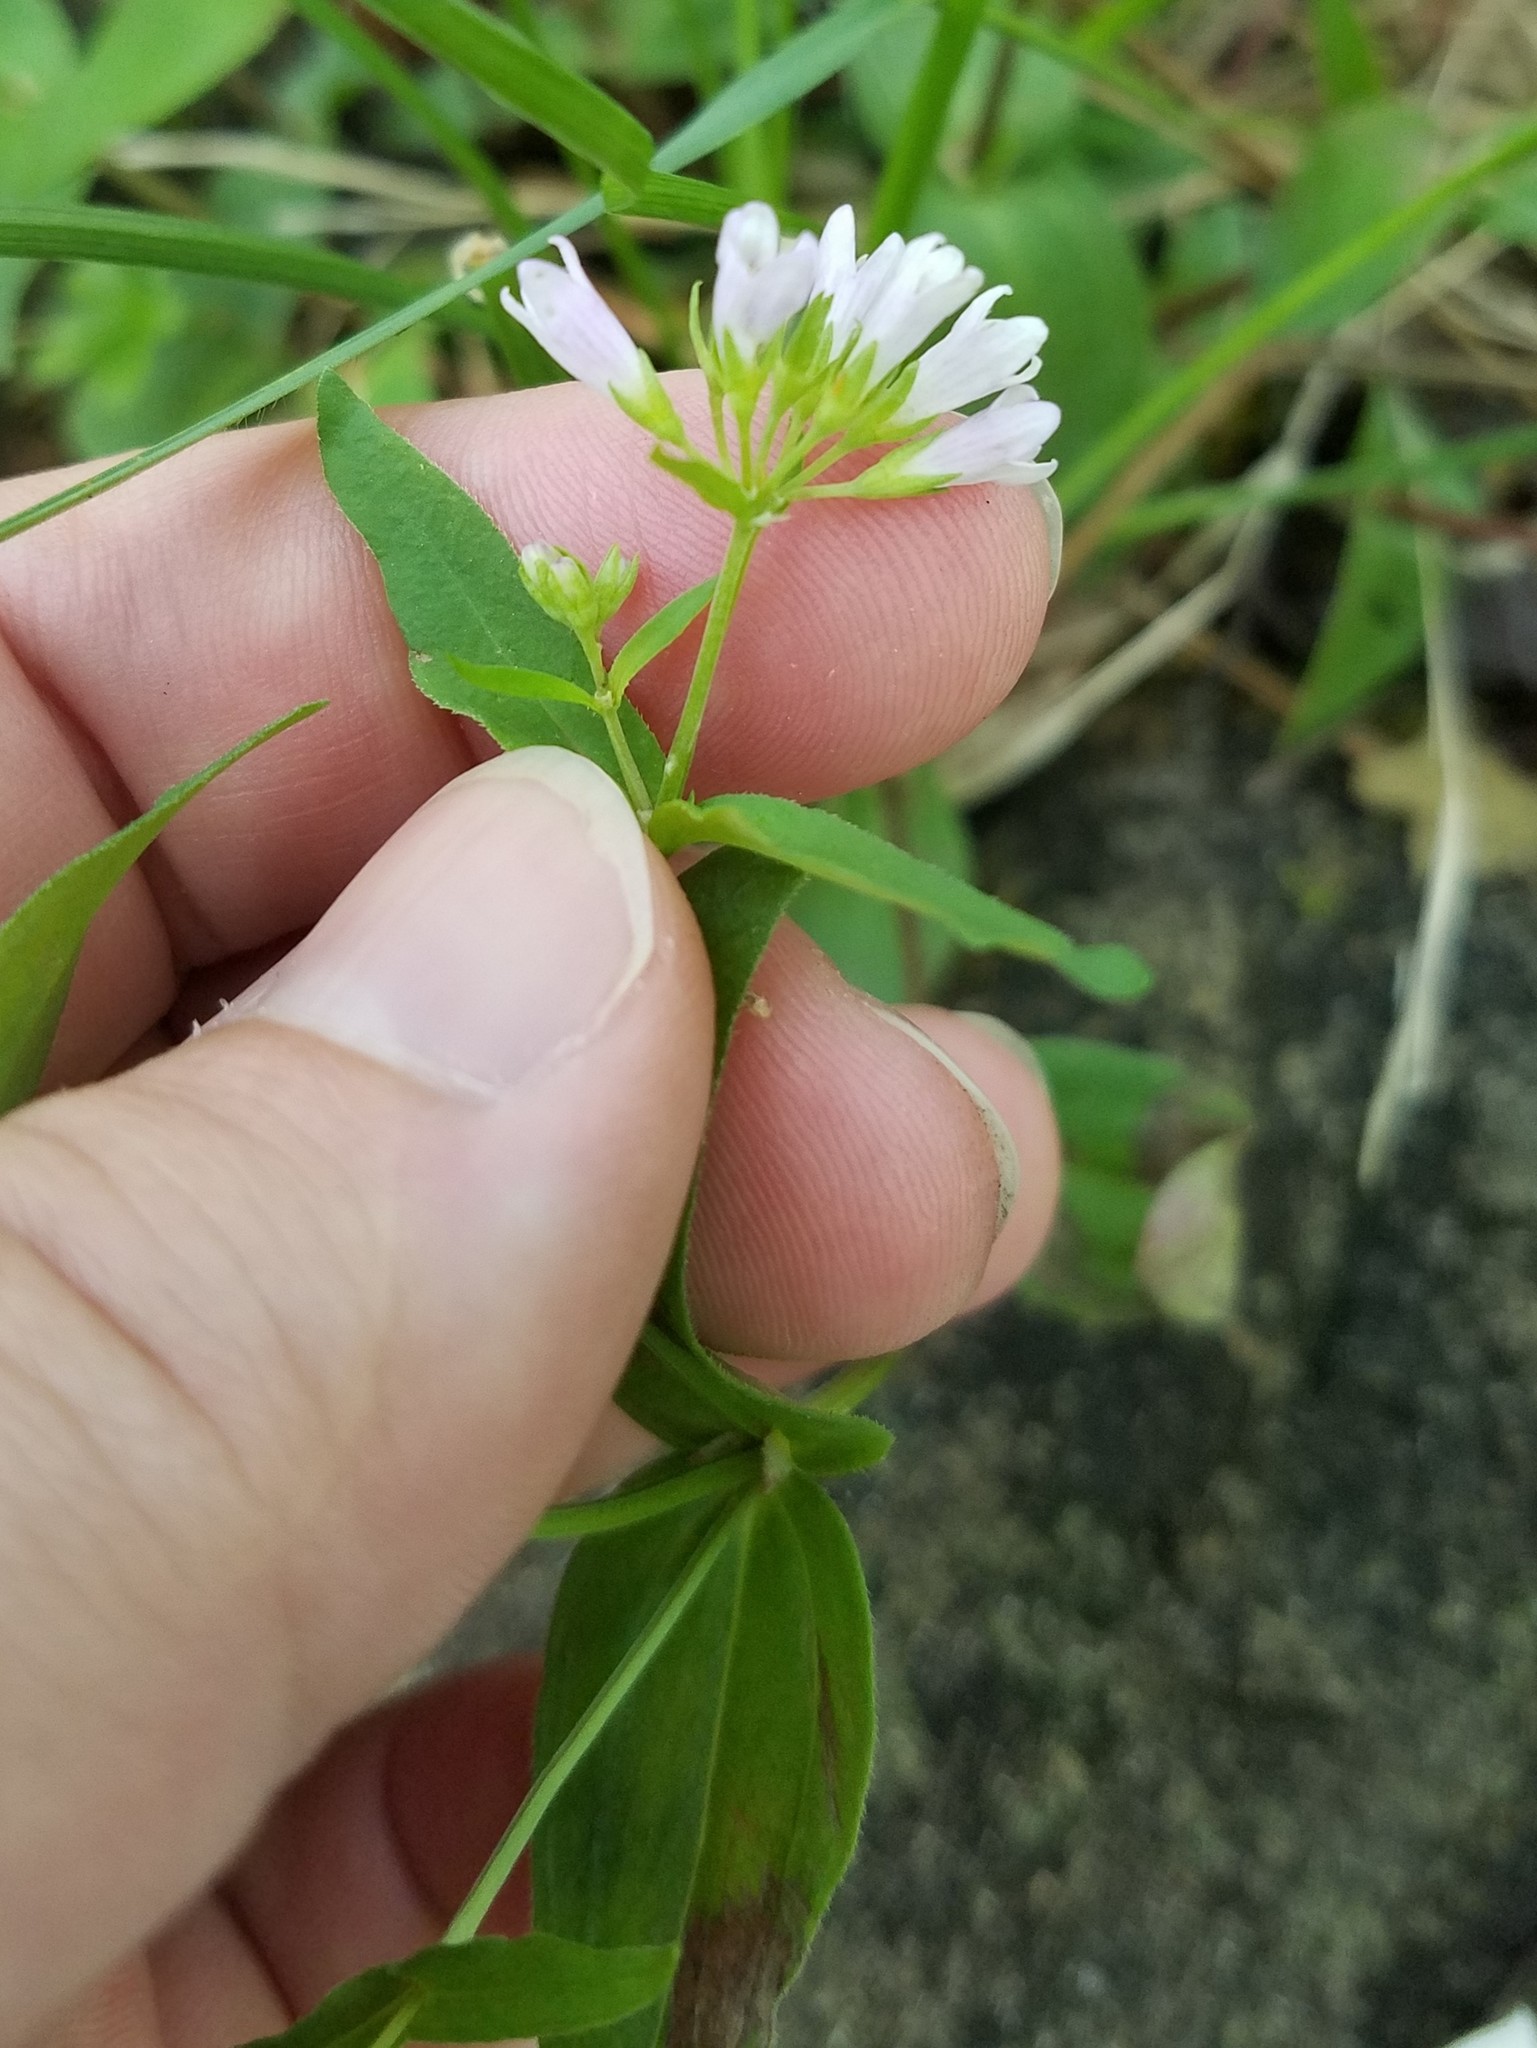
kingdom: Plantae
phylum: Tracheophyta
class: Magnoliopsida
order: Gentianales
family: Rubiaceae
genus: Houstonia
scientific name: Houstonia purpurea
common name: Summer bluet
